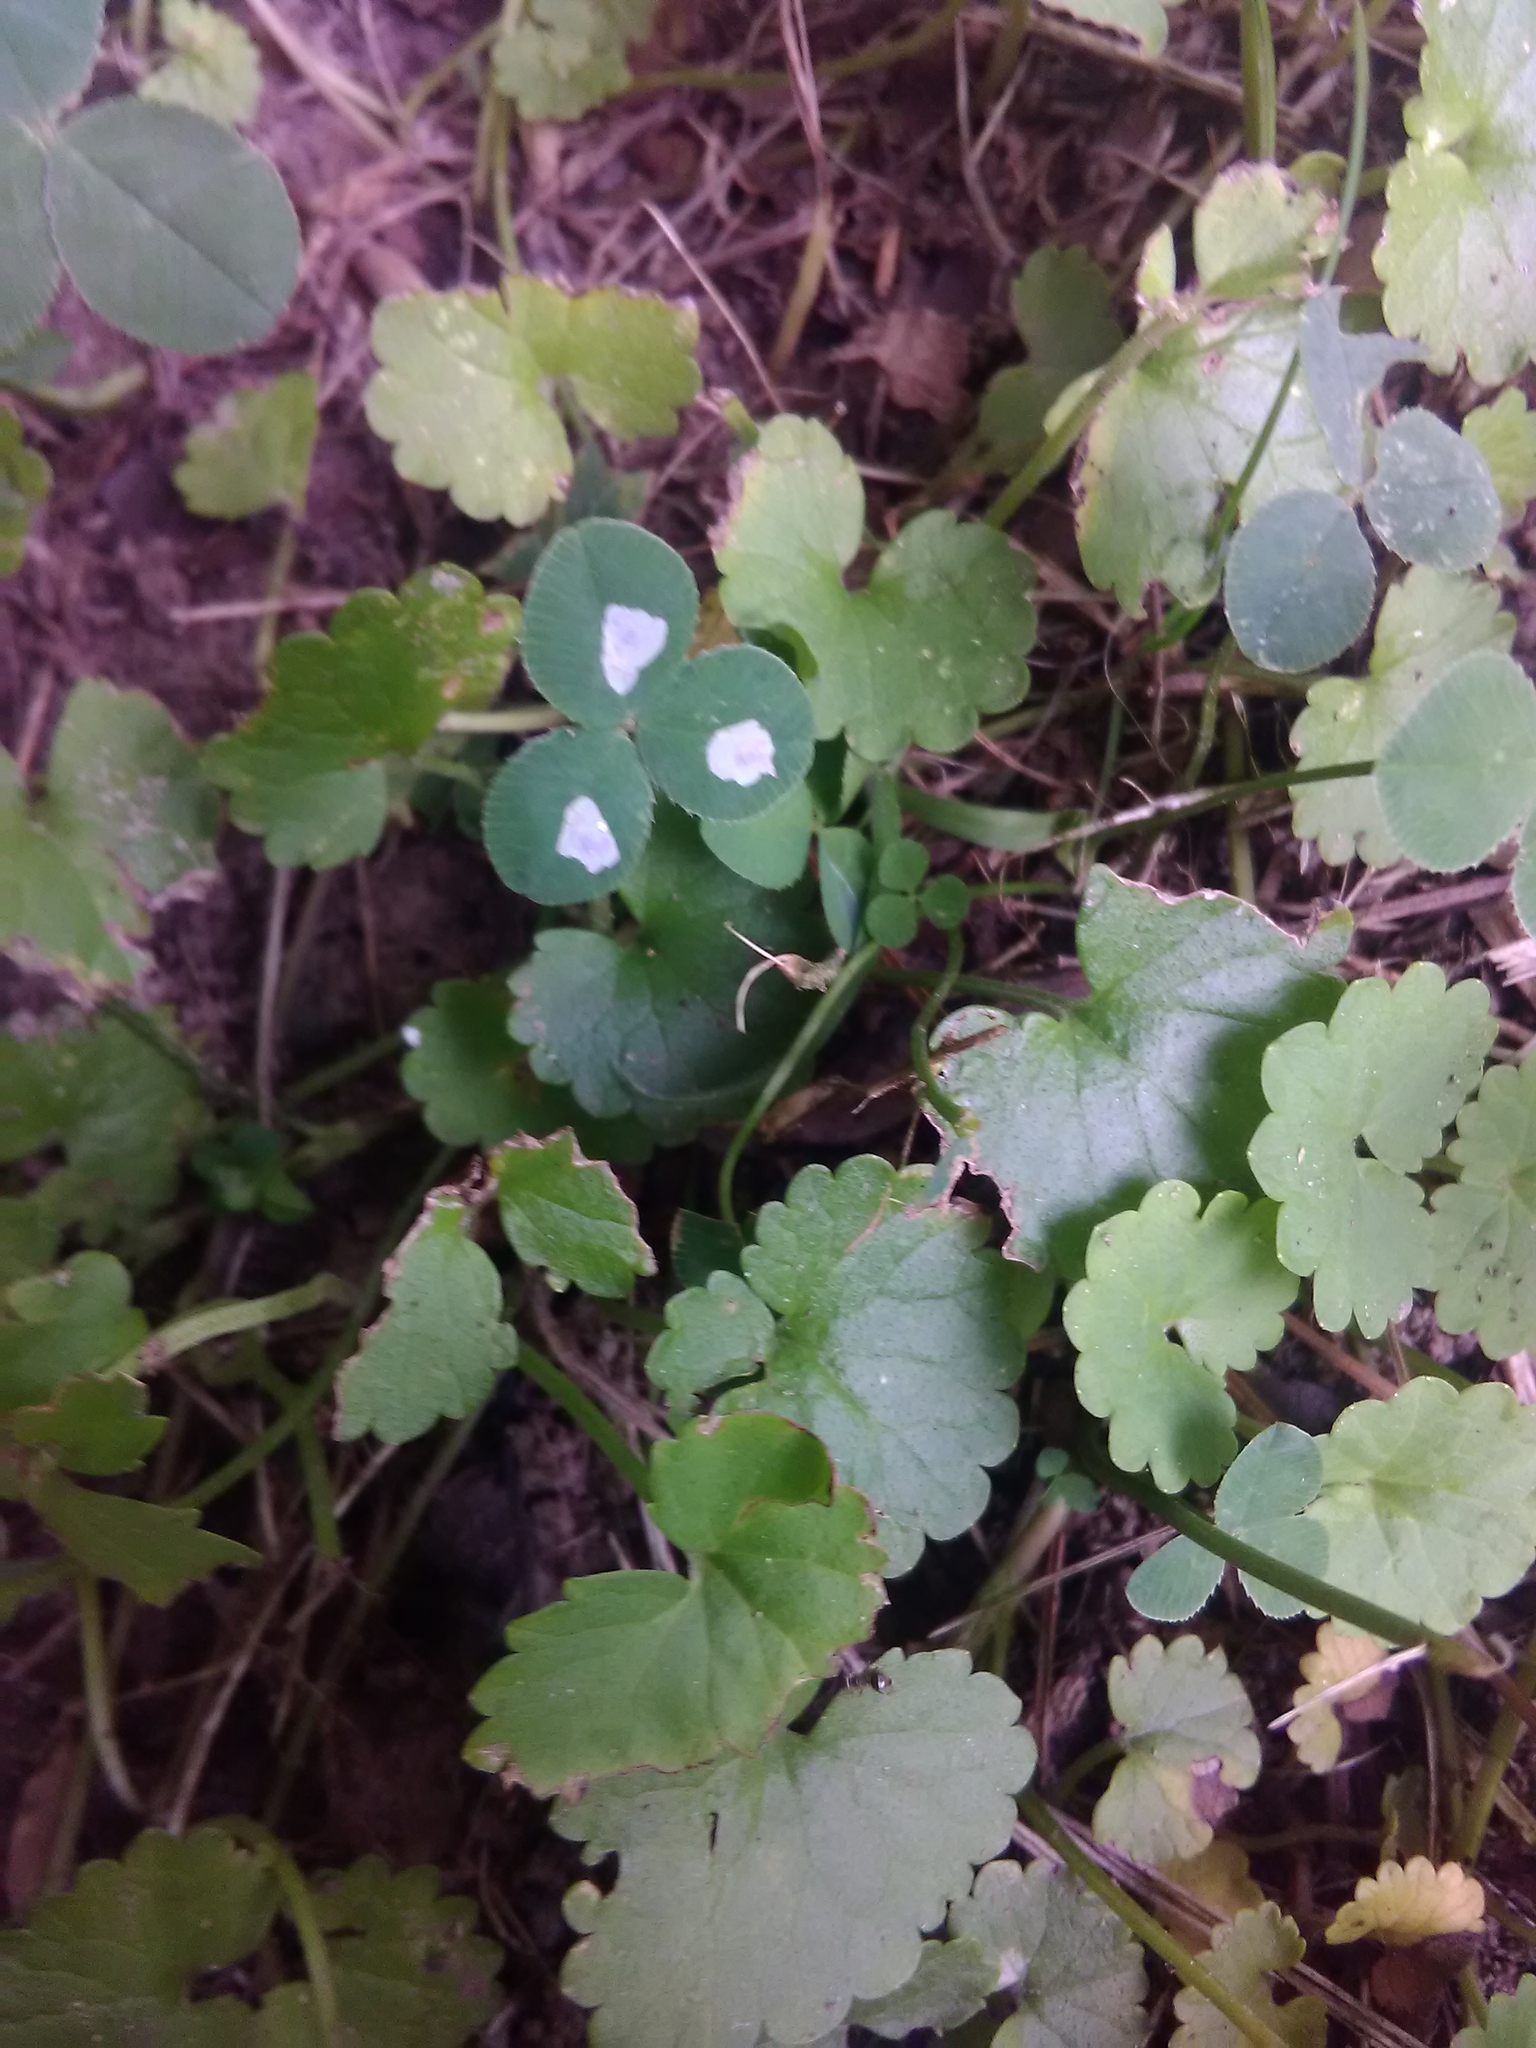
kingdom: Plantae
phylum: Tracheophyta
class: Magnoliopsida
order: Fabales
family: Fabaceae
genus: Trifolium
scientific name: Trifolium repens
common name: White clover
